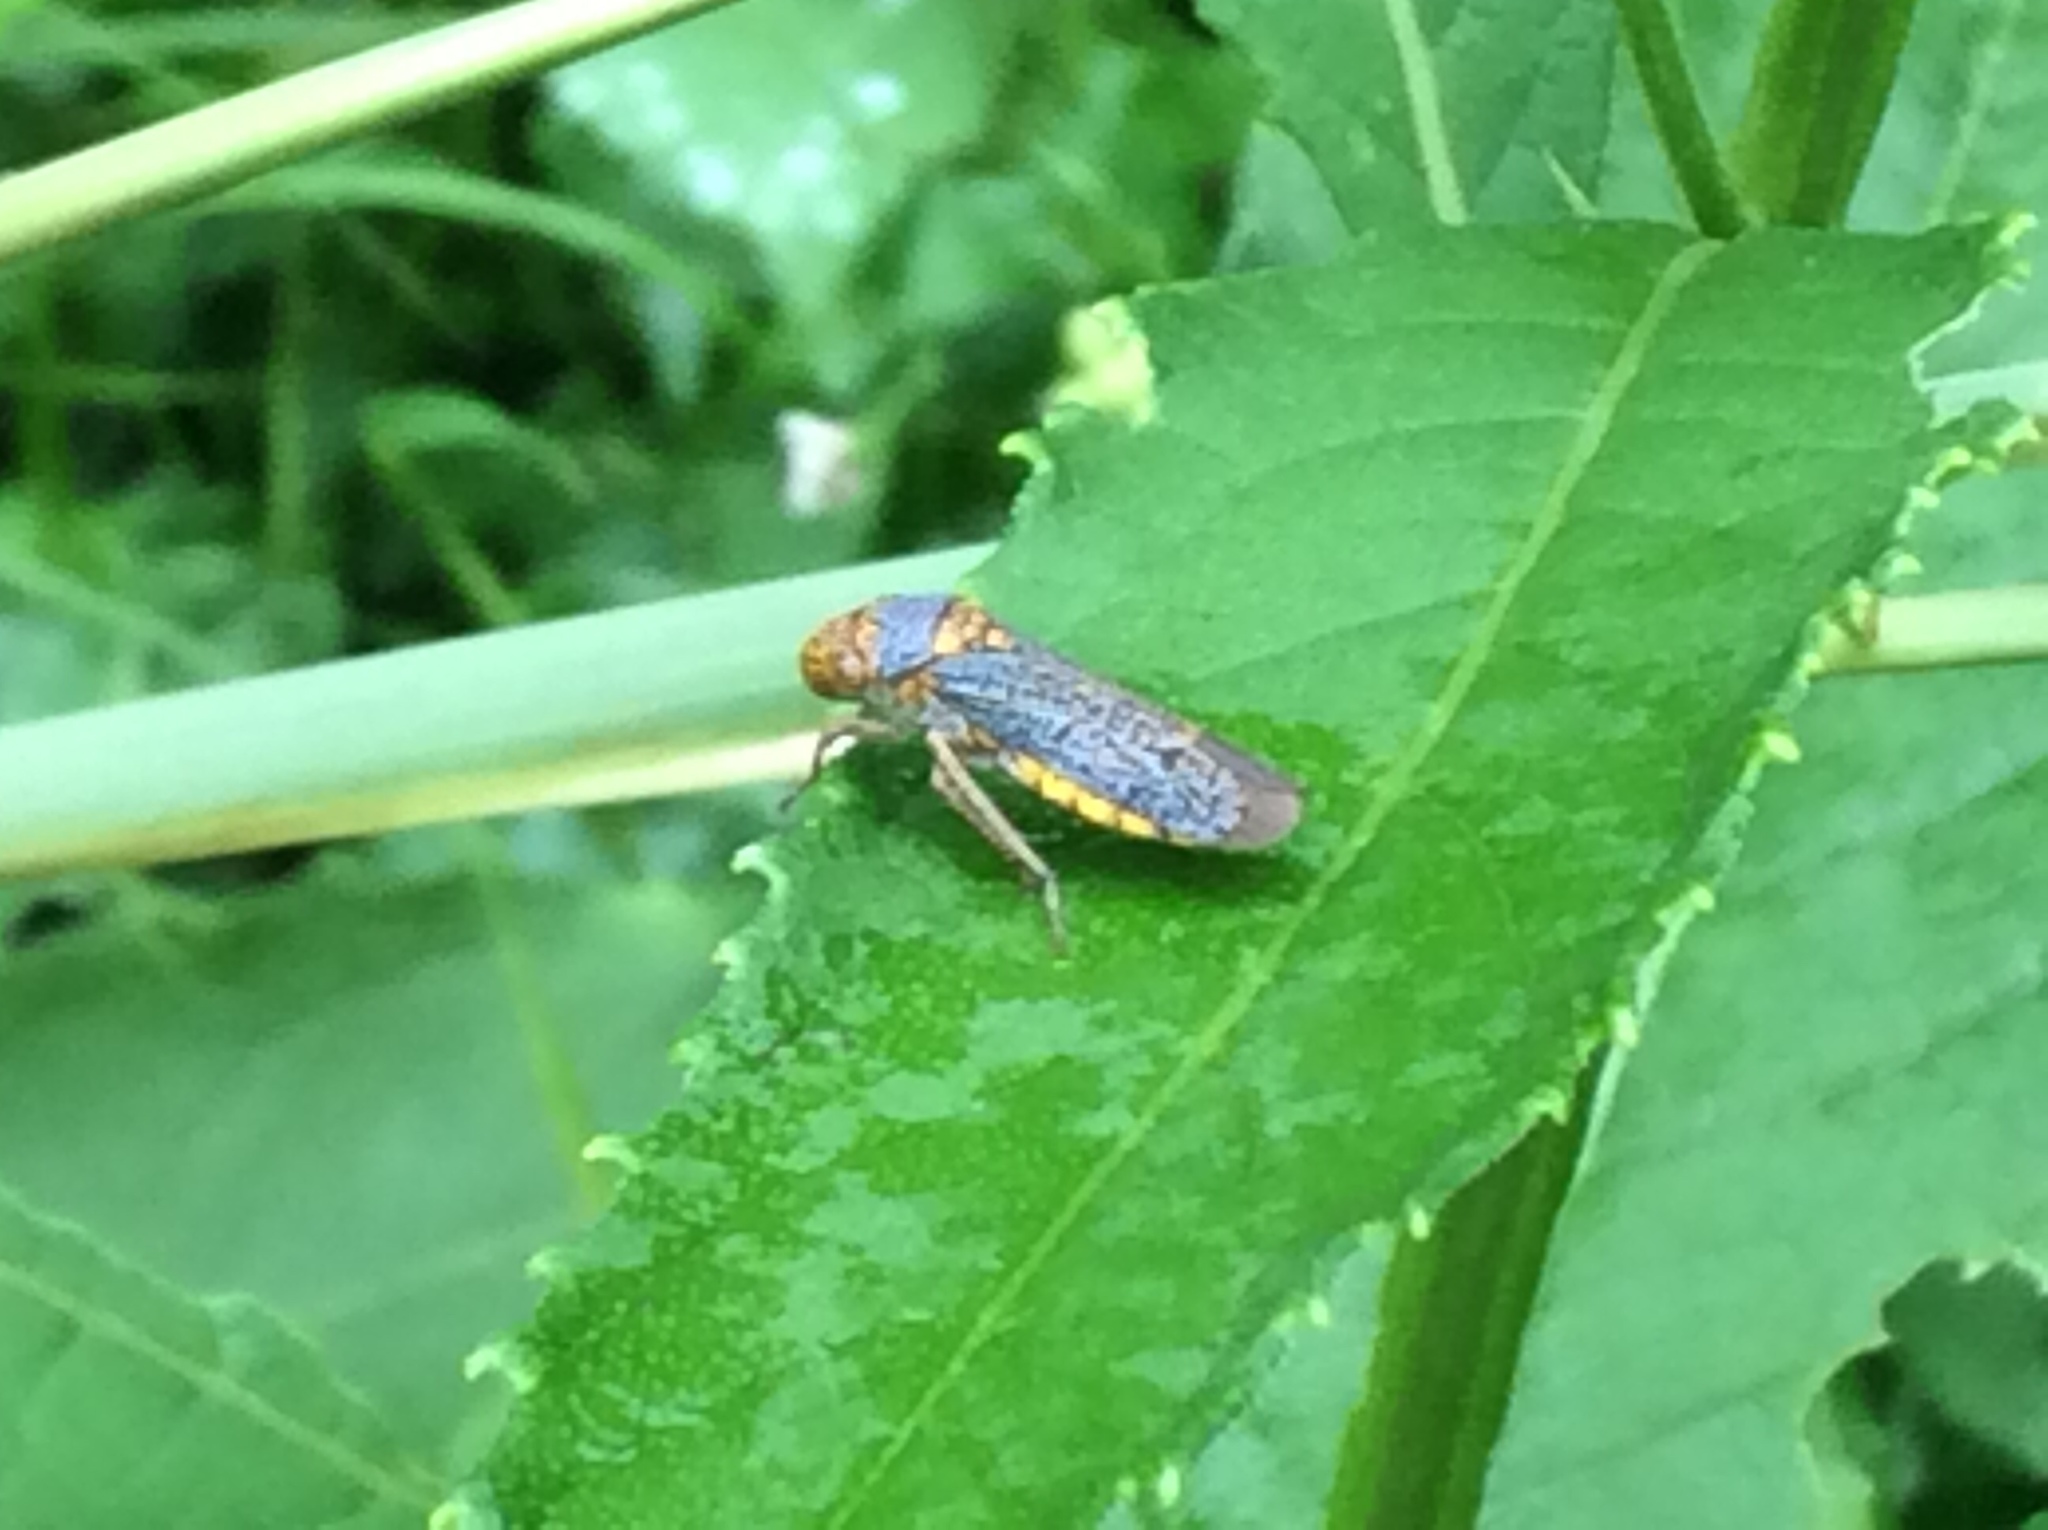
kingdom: Animalia
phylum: Arthropoda
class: Insecta
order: Hemiptera
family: Cicadellidae
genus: Oncometopia
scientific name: Oncometopia orbona
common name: Broad-headed sharpshooter
